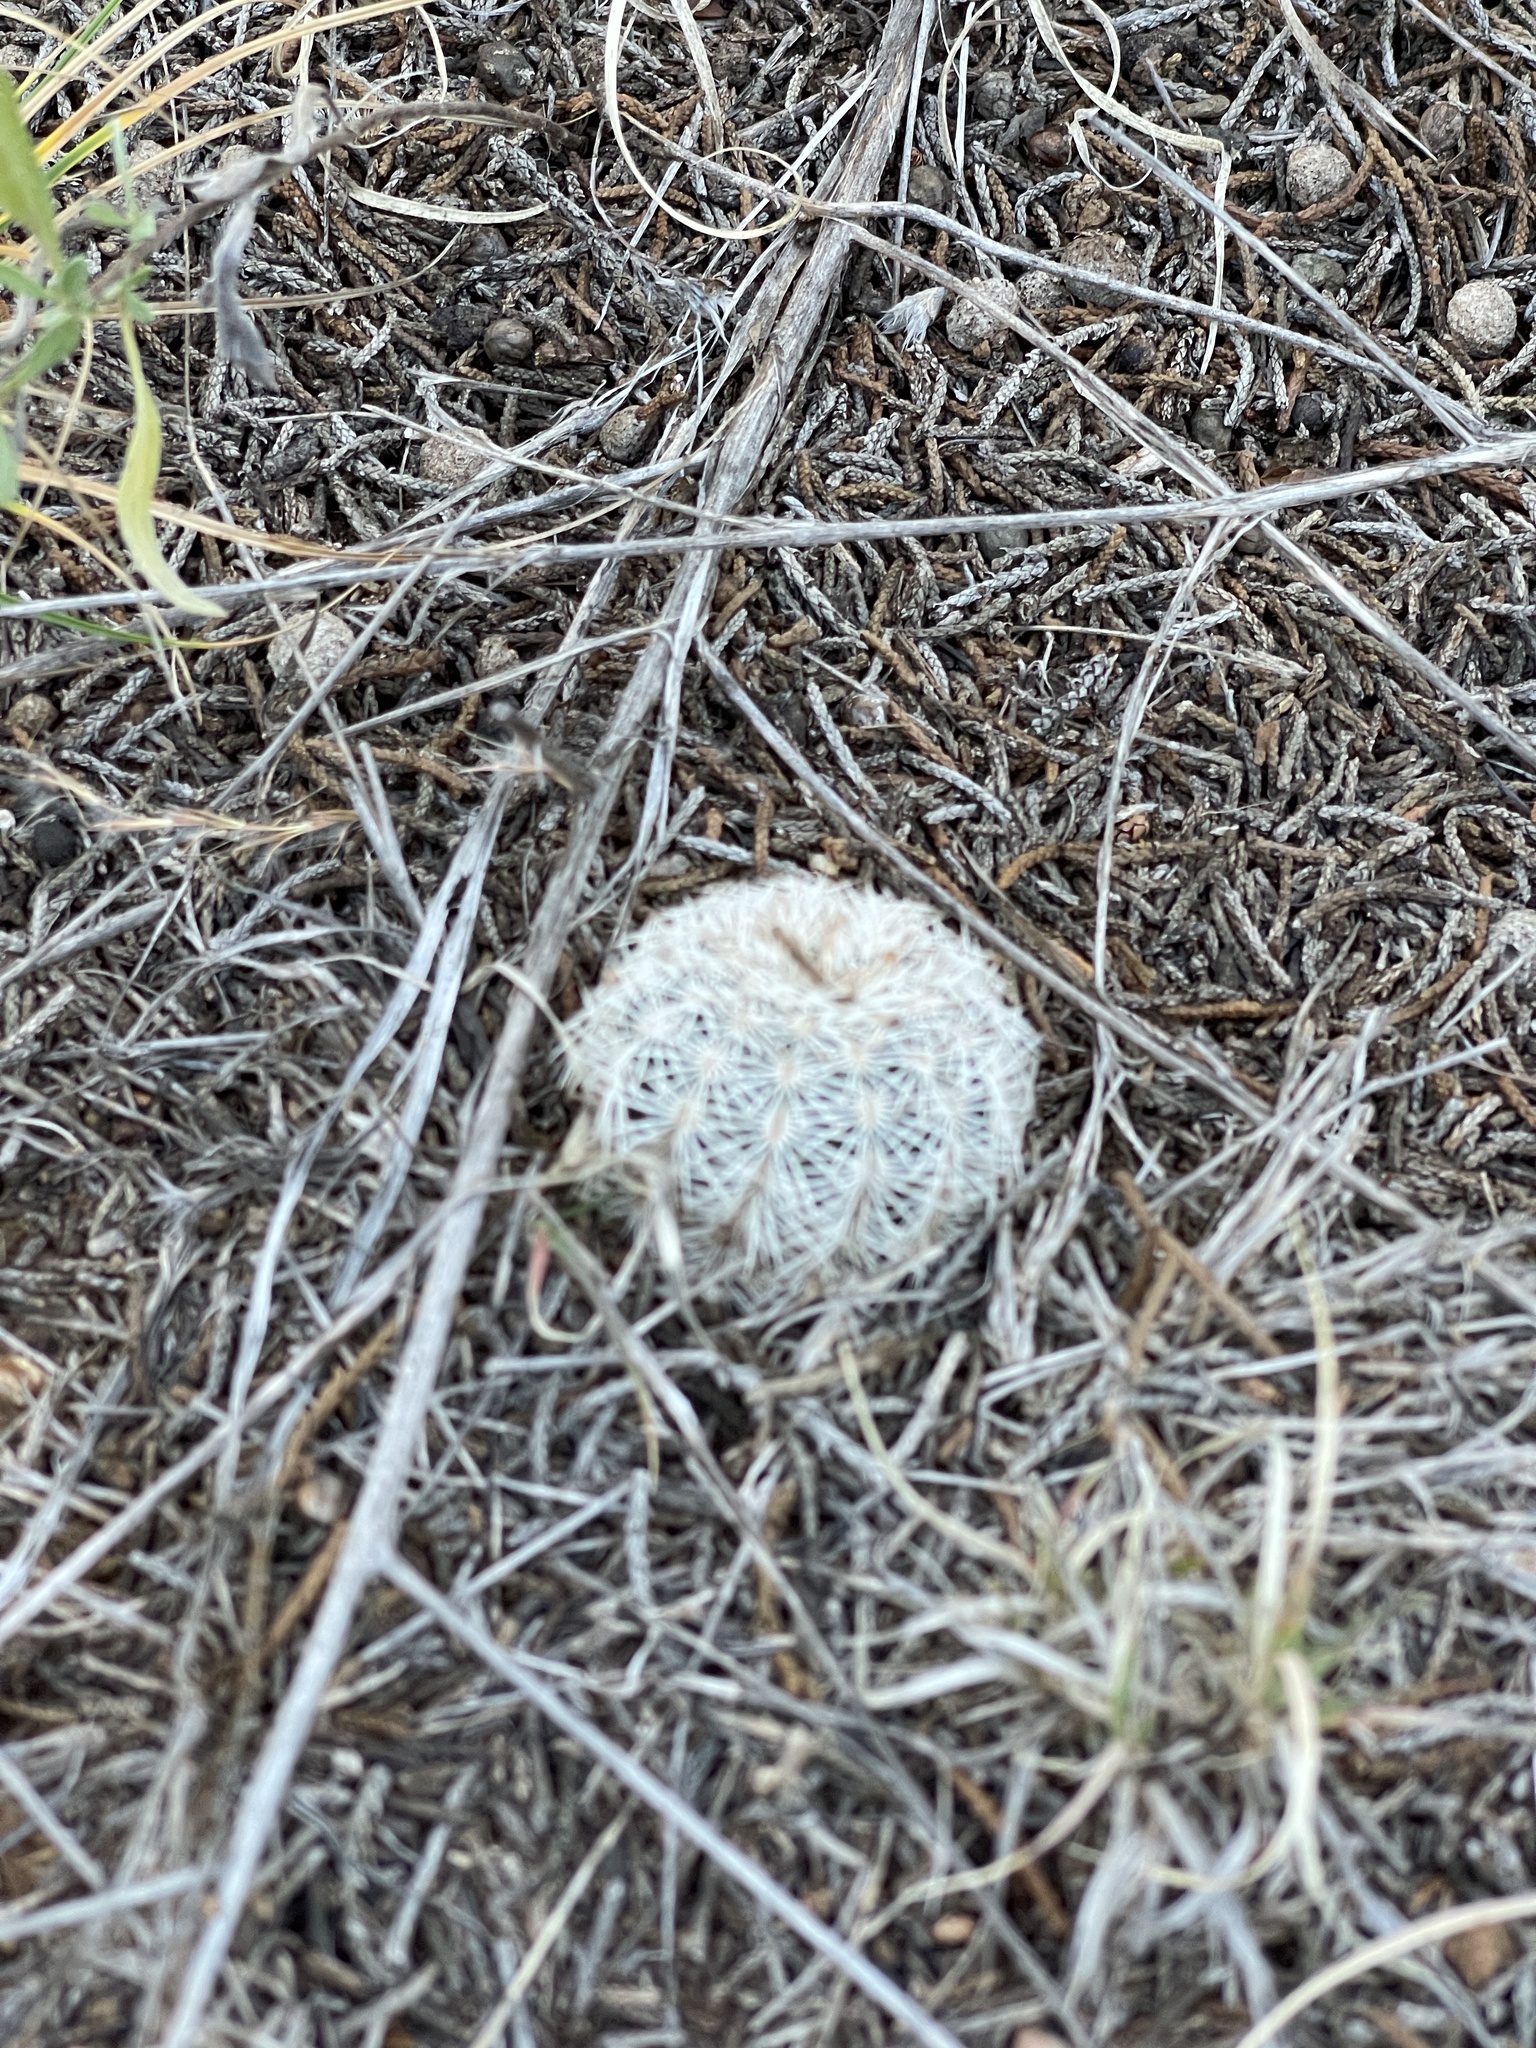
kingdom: Plantae
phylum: Tracheophyta
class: Magnoliopsida
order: Caryophyllales
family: Cactaceae
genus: Echinocereus
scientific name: Echinocereus reichenbachii
